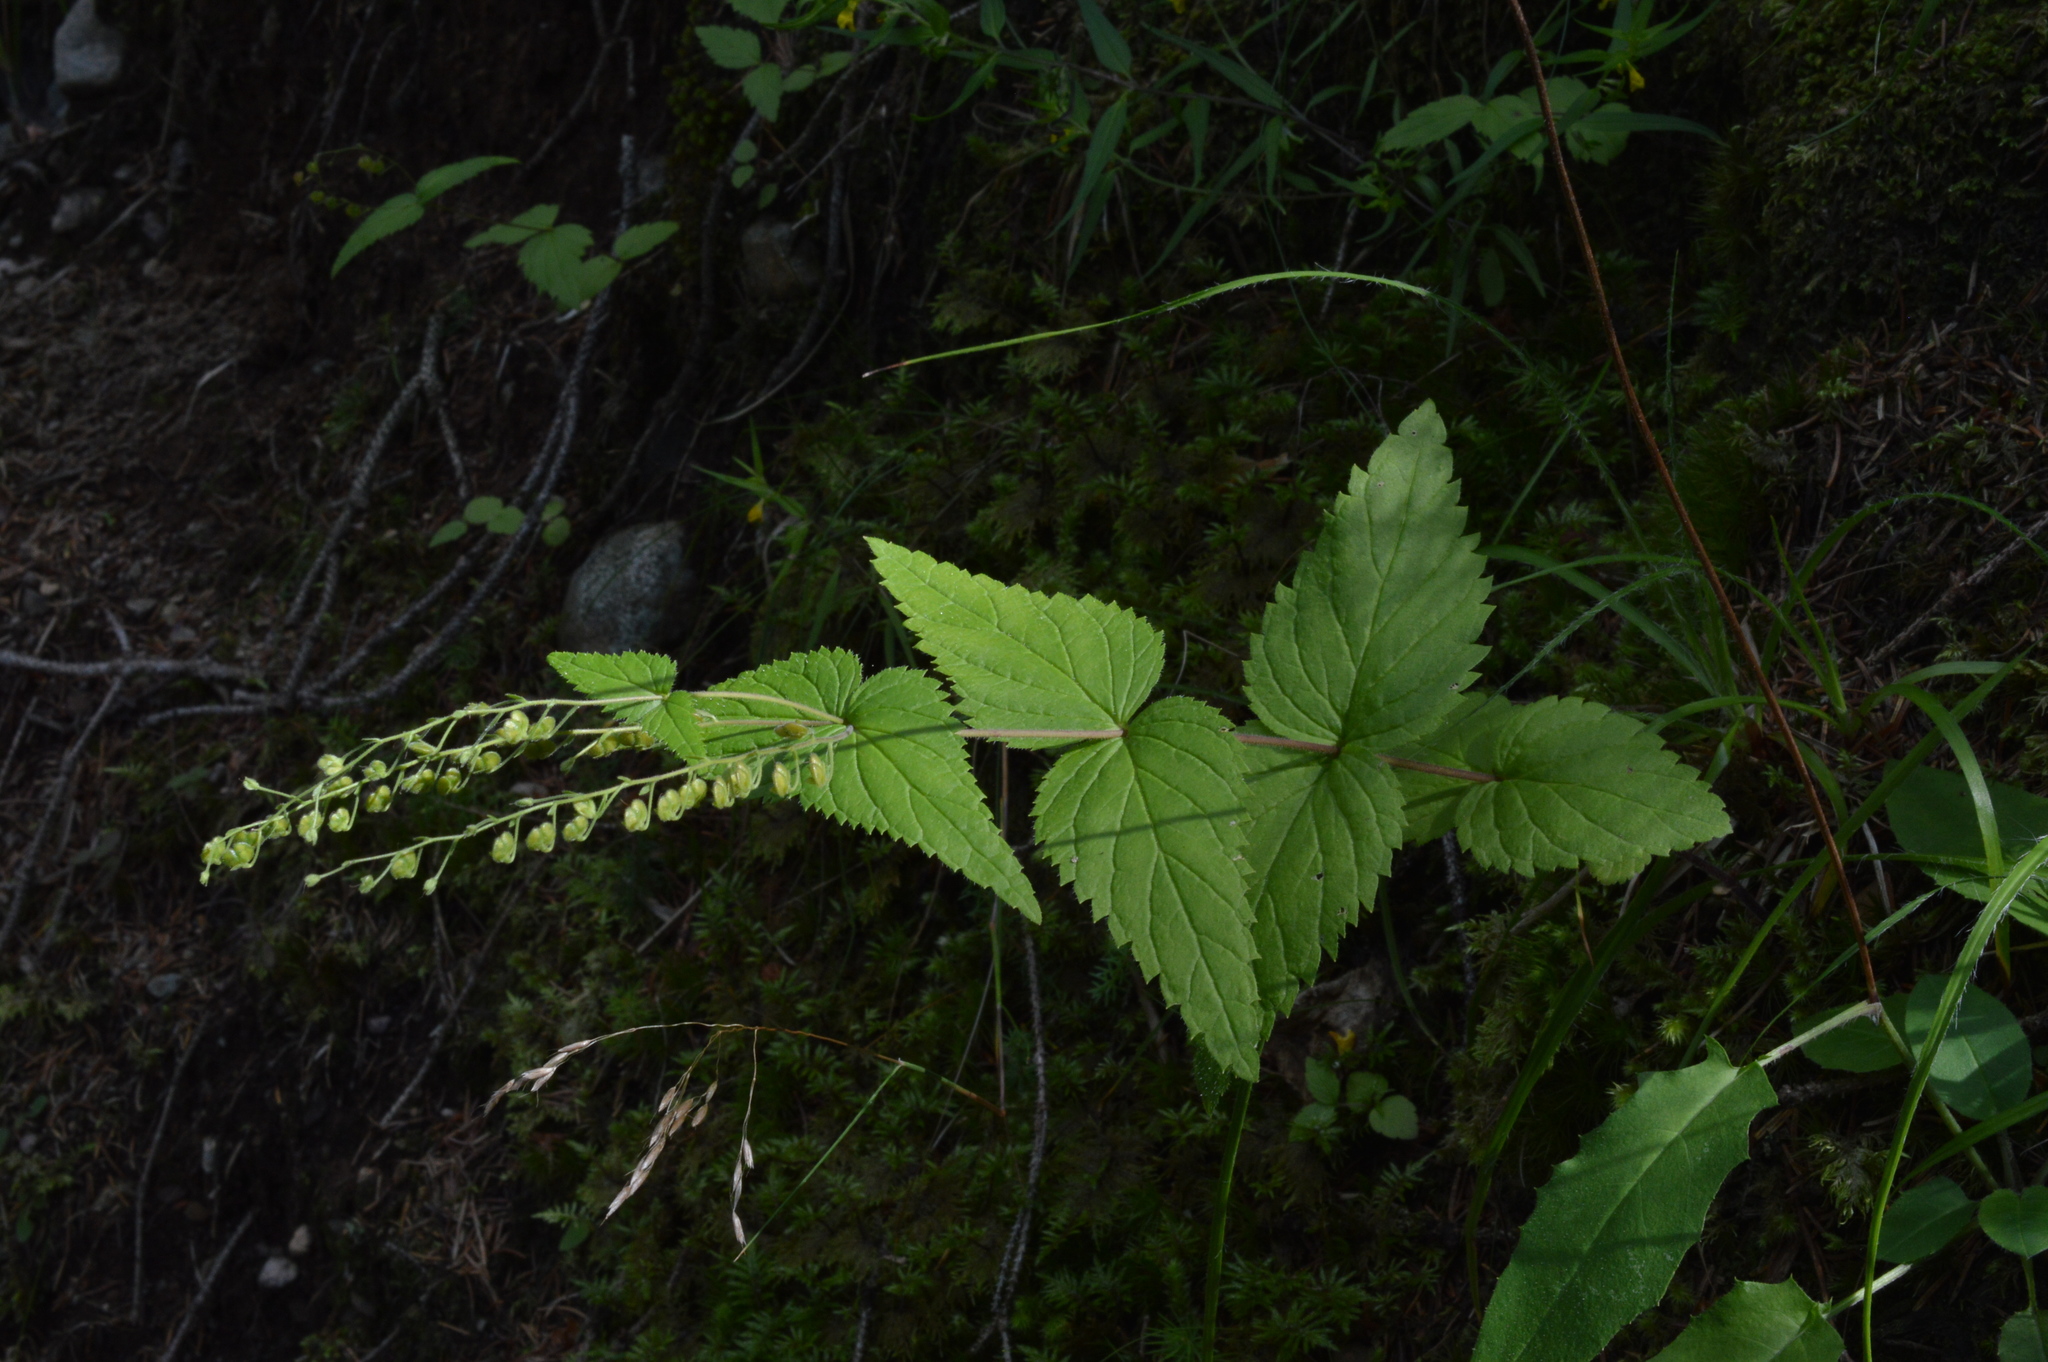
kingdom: Plantae
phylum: Tracheophyta
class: Magnoliopsida
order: Lamiales
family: Plantaginaceae
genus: Veronica
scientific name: Veronica urticifolia
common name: Nettle-leaf speedwell
